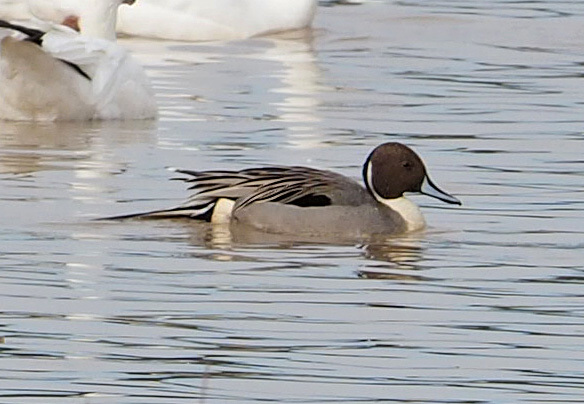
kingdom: Animalia
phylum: Chordata
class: Aves
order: Anseriformes
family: Anatidae
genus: Anas
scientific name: Anas acuta
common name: Northern pintail
